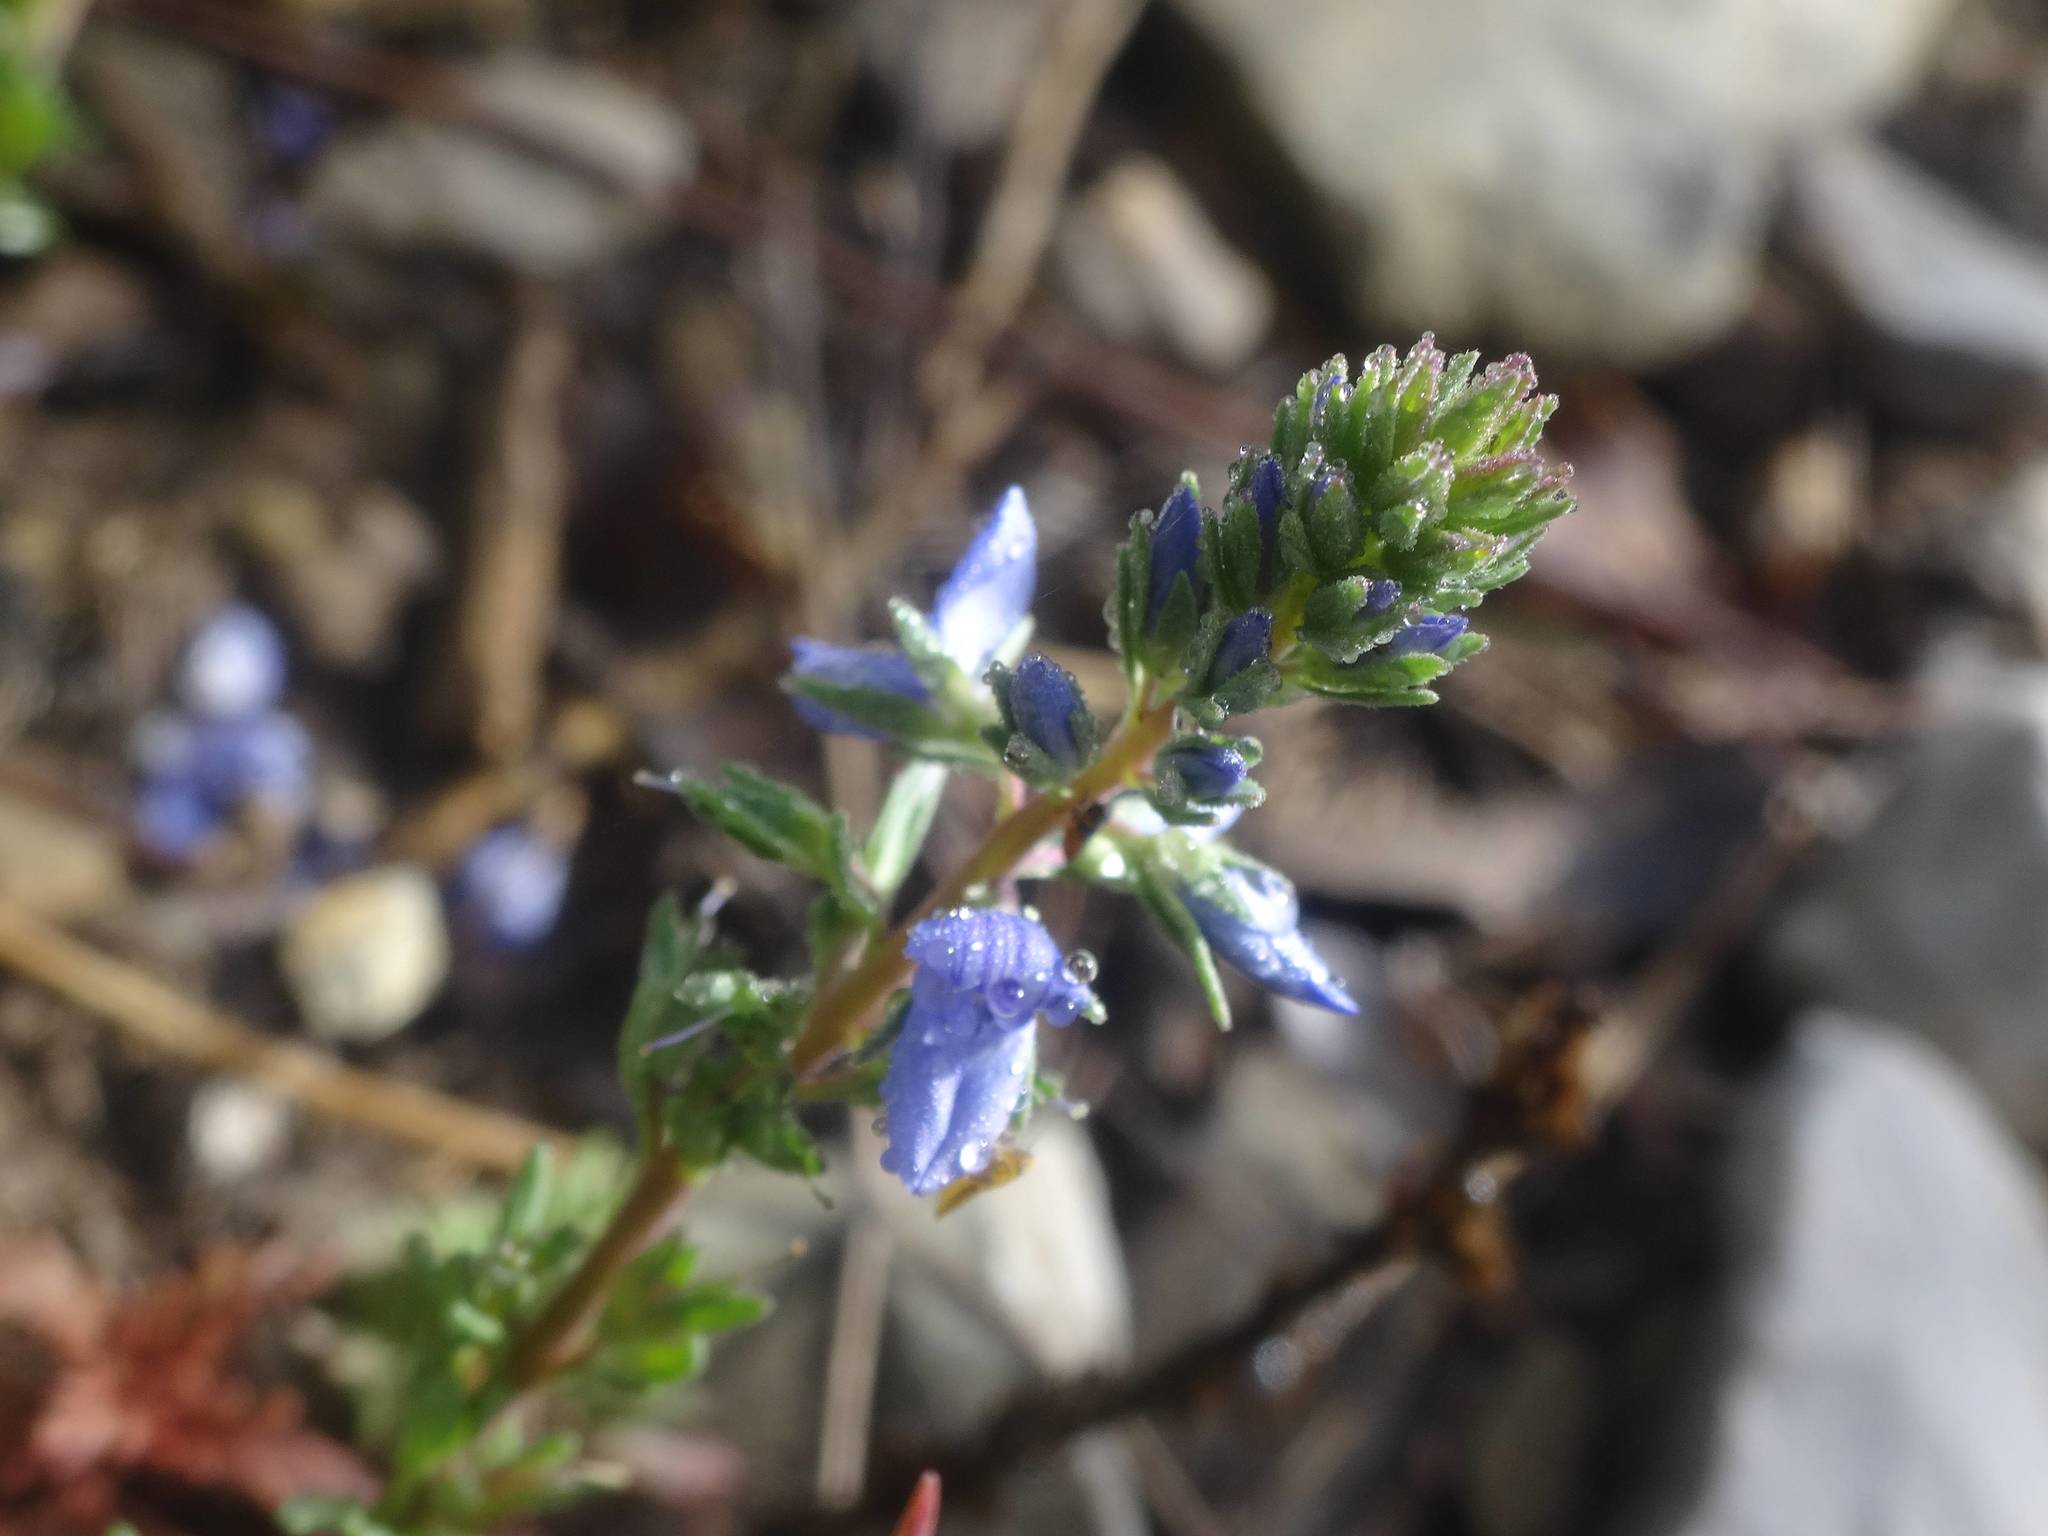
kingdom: Plantae
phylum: Tracheophyta
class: Magnoliopsida
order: Lamiales
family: Plantaginaceae
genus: Veronica
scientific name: Veronica multifida
